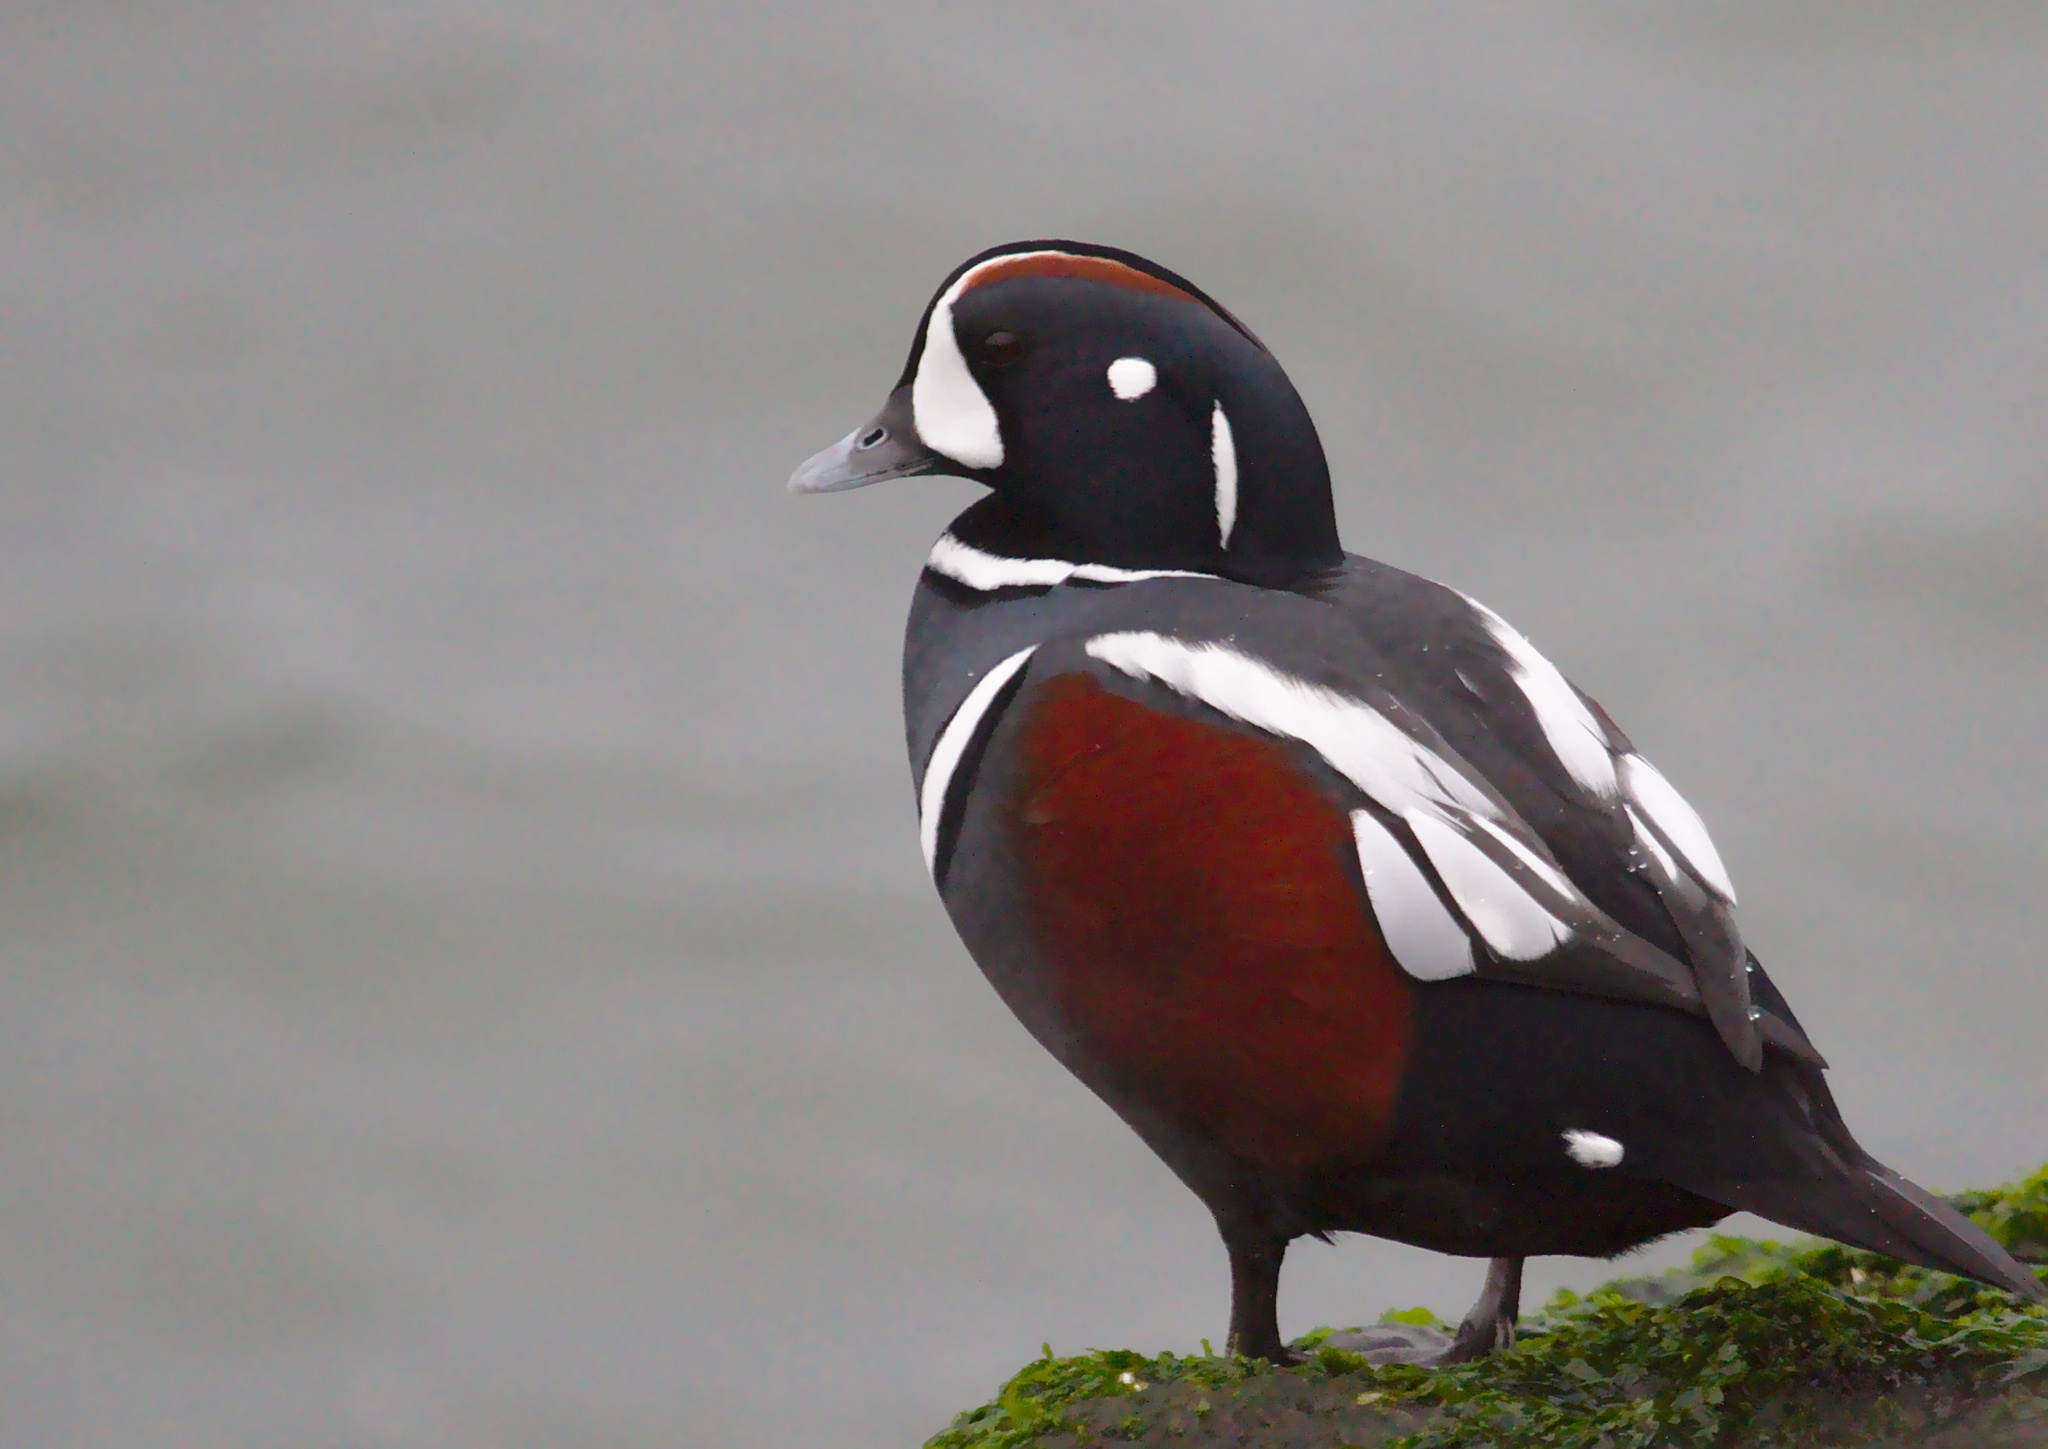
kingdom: Animalia
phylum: Chordata
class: Aves
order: Anseriformes
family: Anatidae
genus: Histrionicus
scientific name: Histrionicus histrionicus
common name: Harlequin duck
